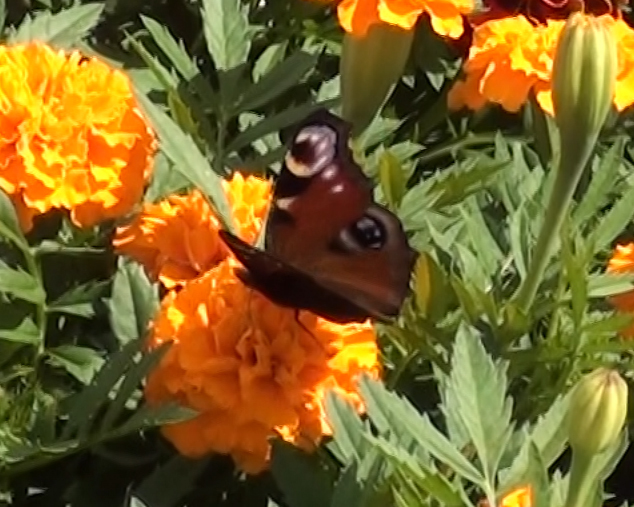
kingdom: Animalia
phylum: Arthropoda
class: Insecta
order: Lepidoptera
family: Nymphalidae
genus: Aglais
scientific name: Aglais io
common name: Peacock
